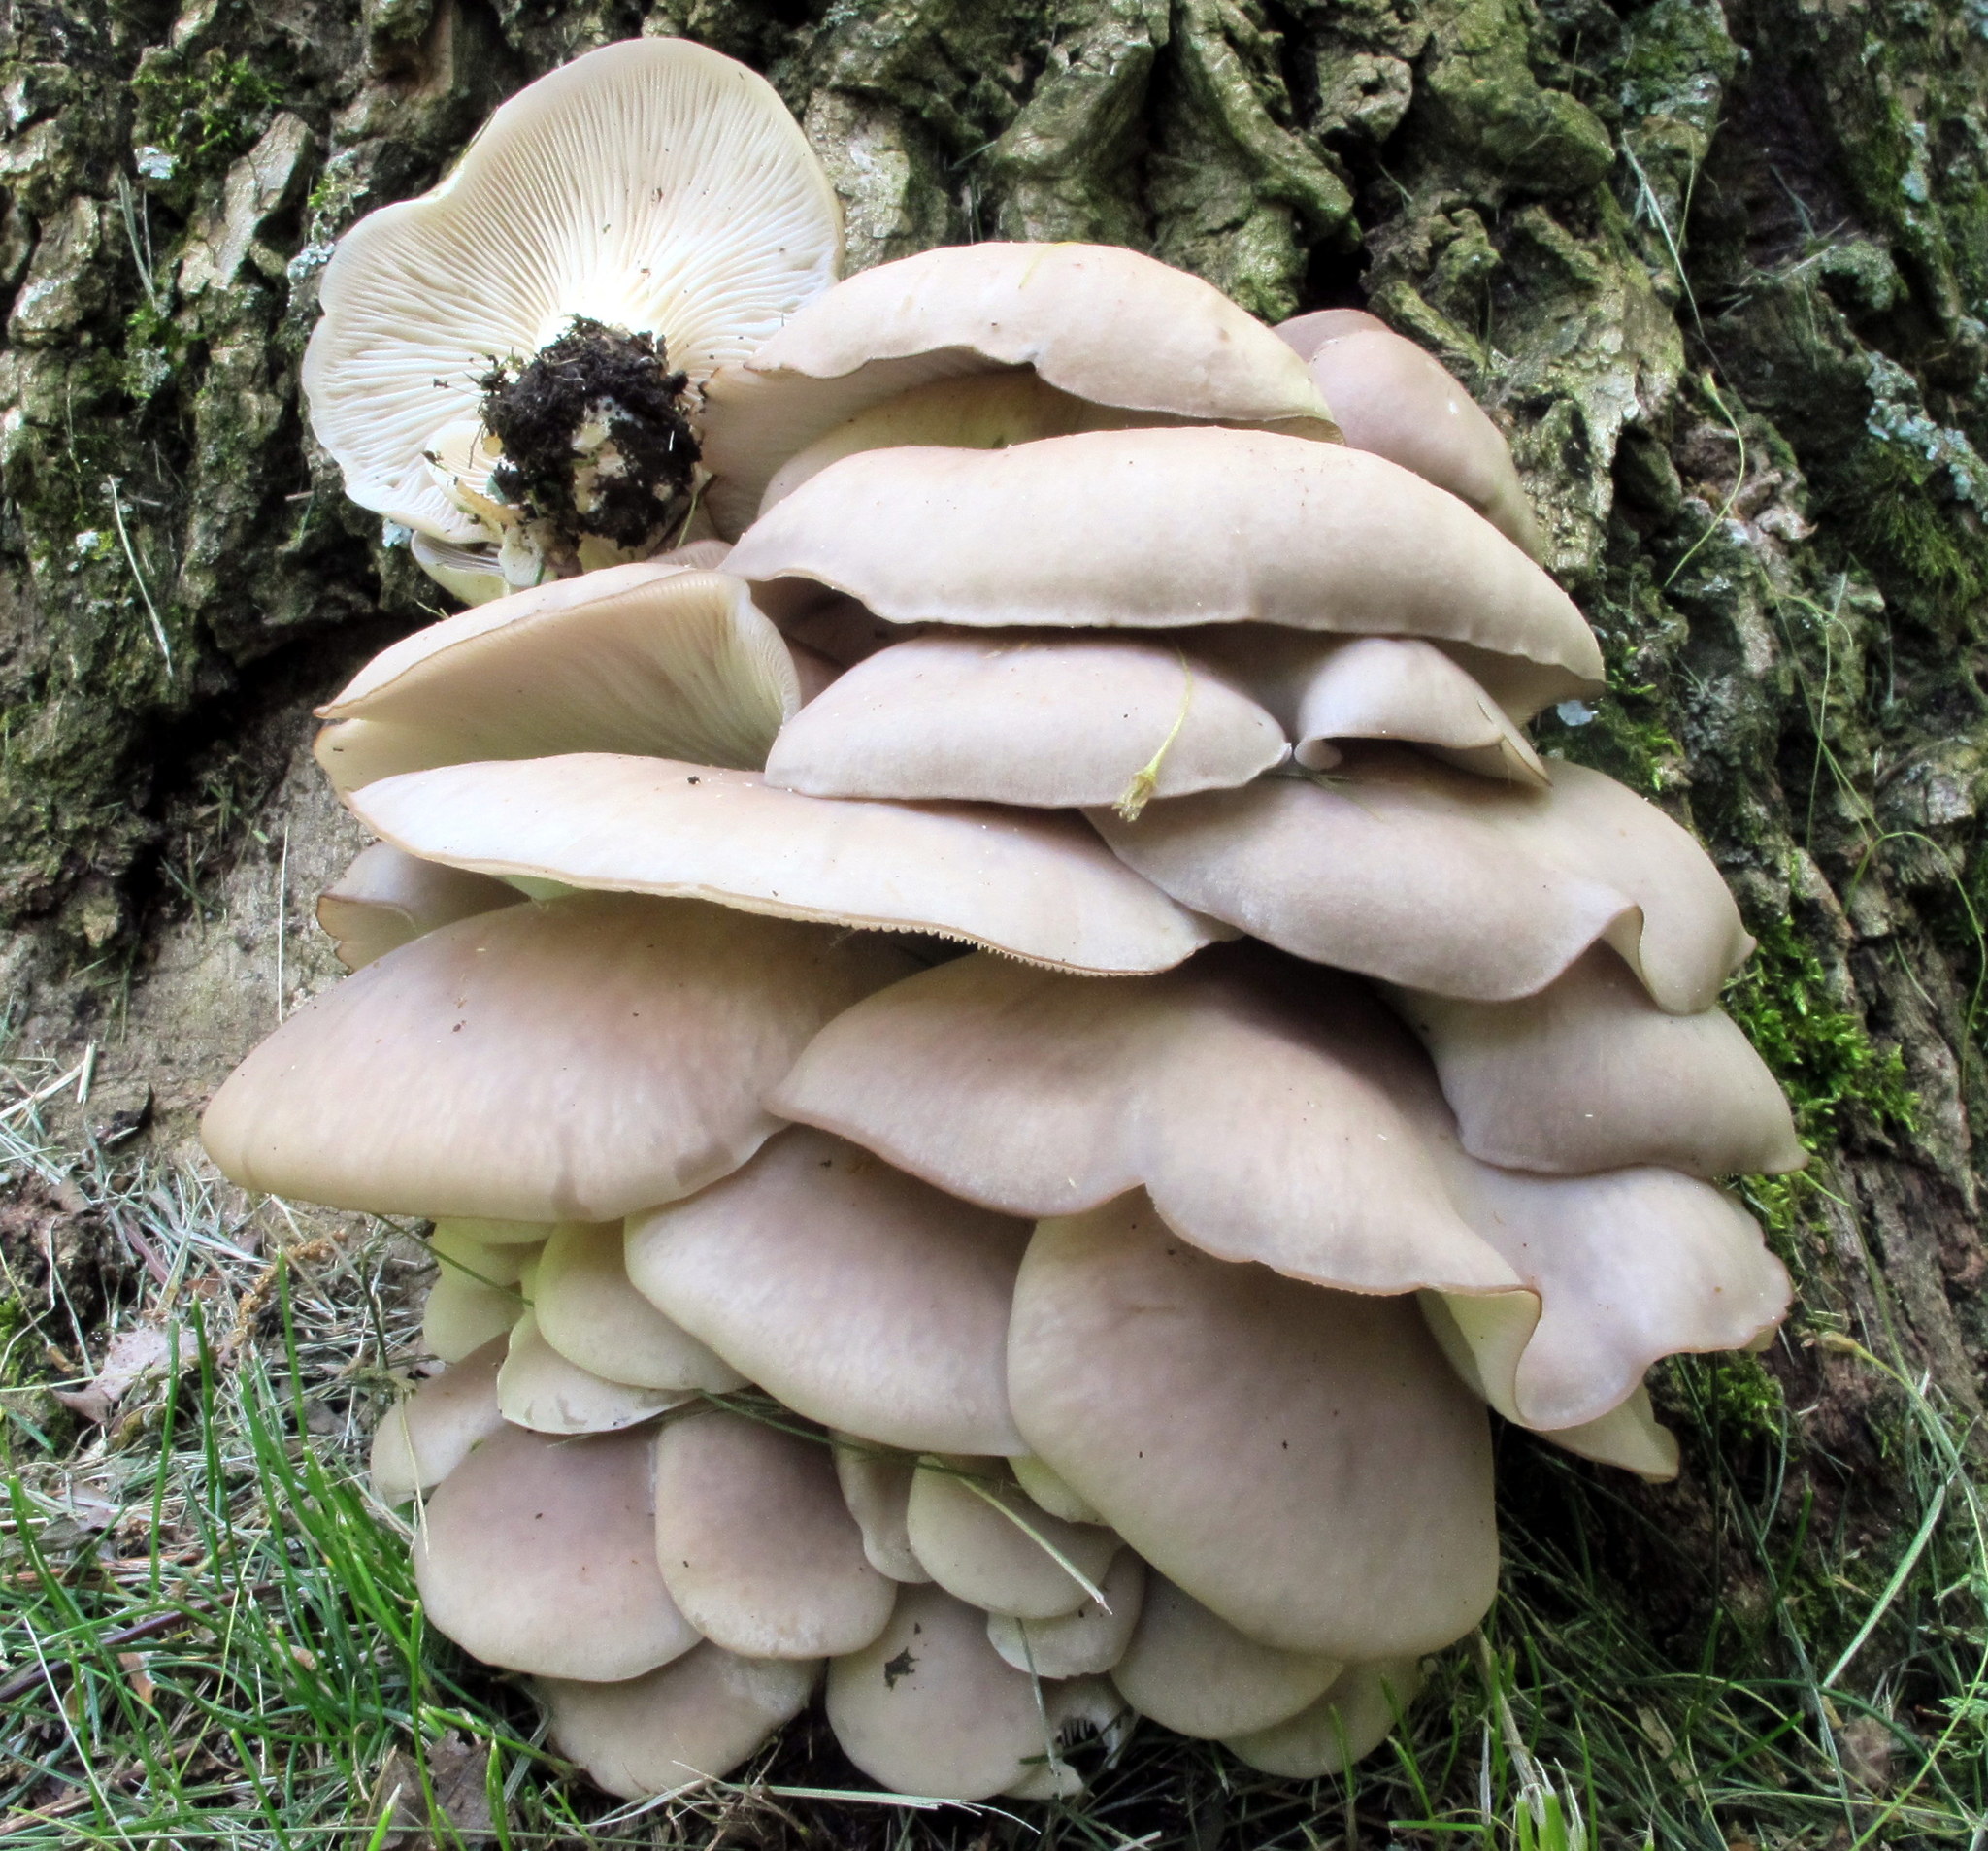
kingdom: Fungi
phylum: Basidiomycota
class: Agaricomycetes
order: Agaricales
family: Pleurotaceae
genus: Pleurotus
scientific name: Pleurotus ostreatus
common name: Oyster mushroom
